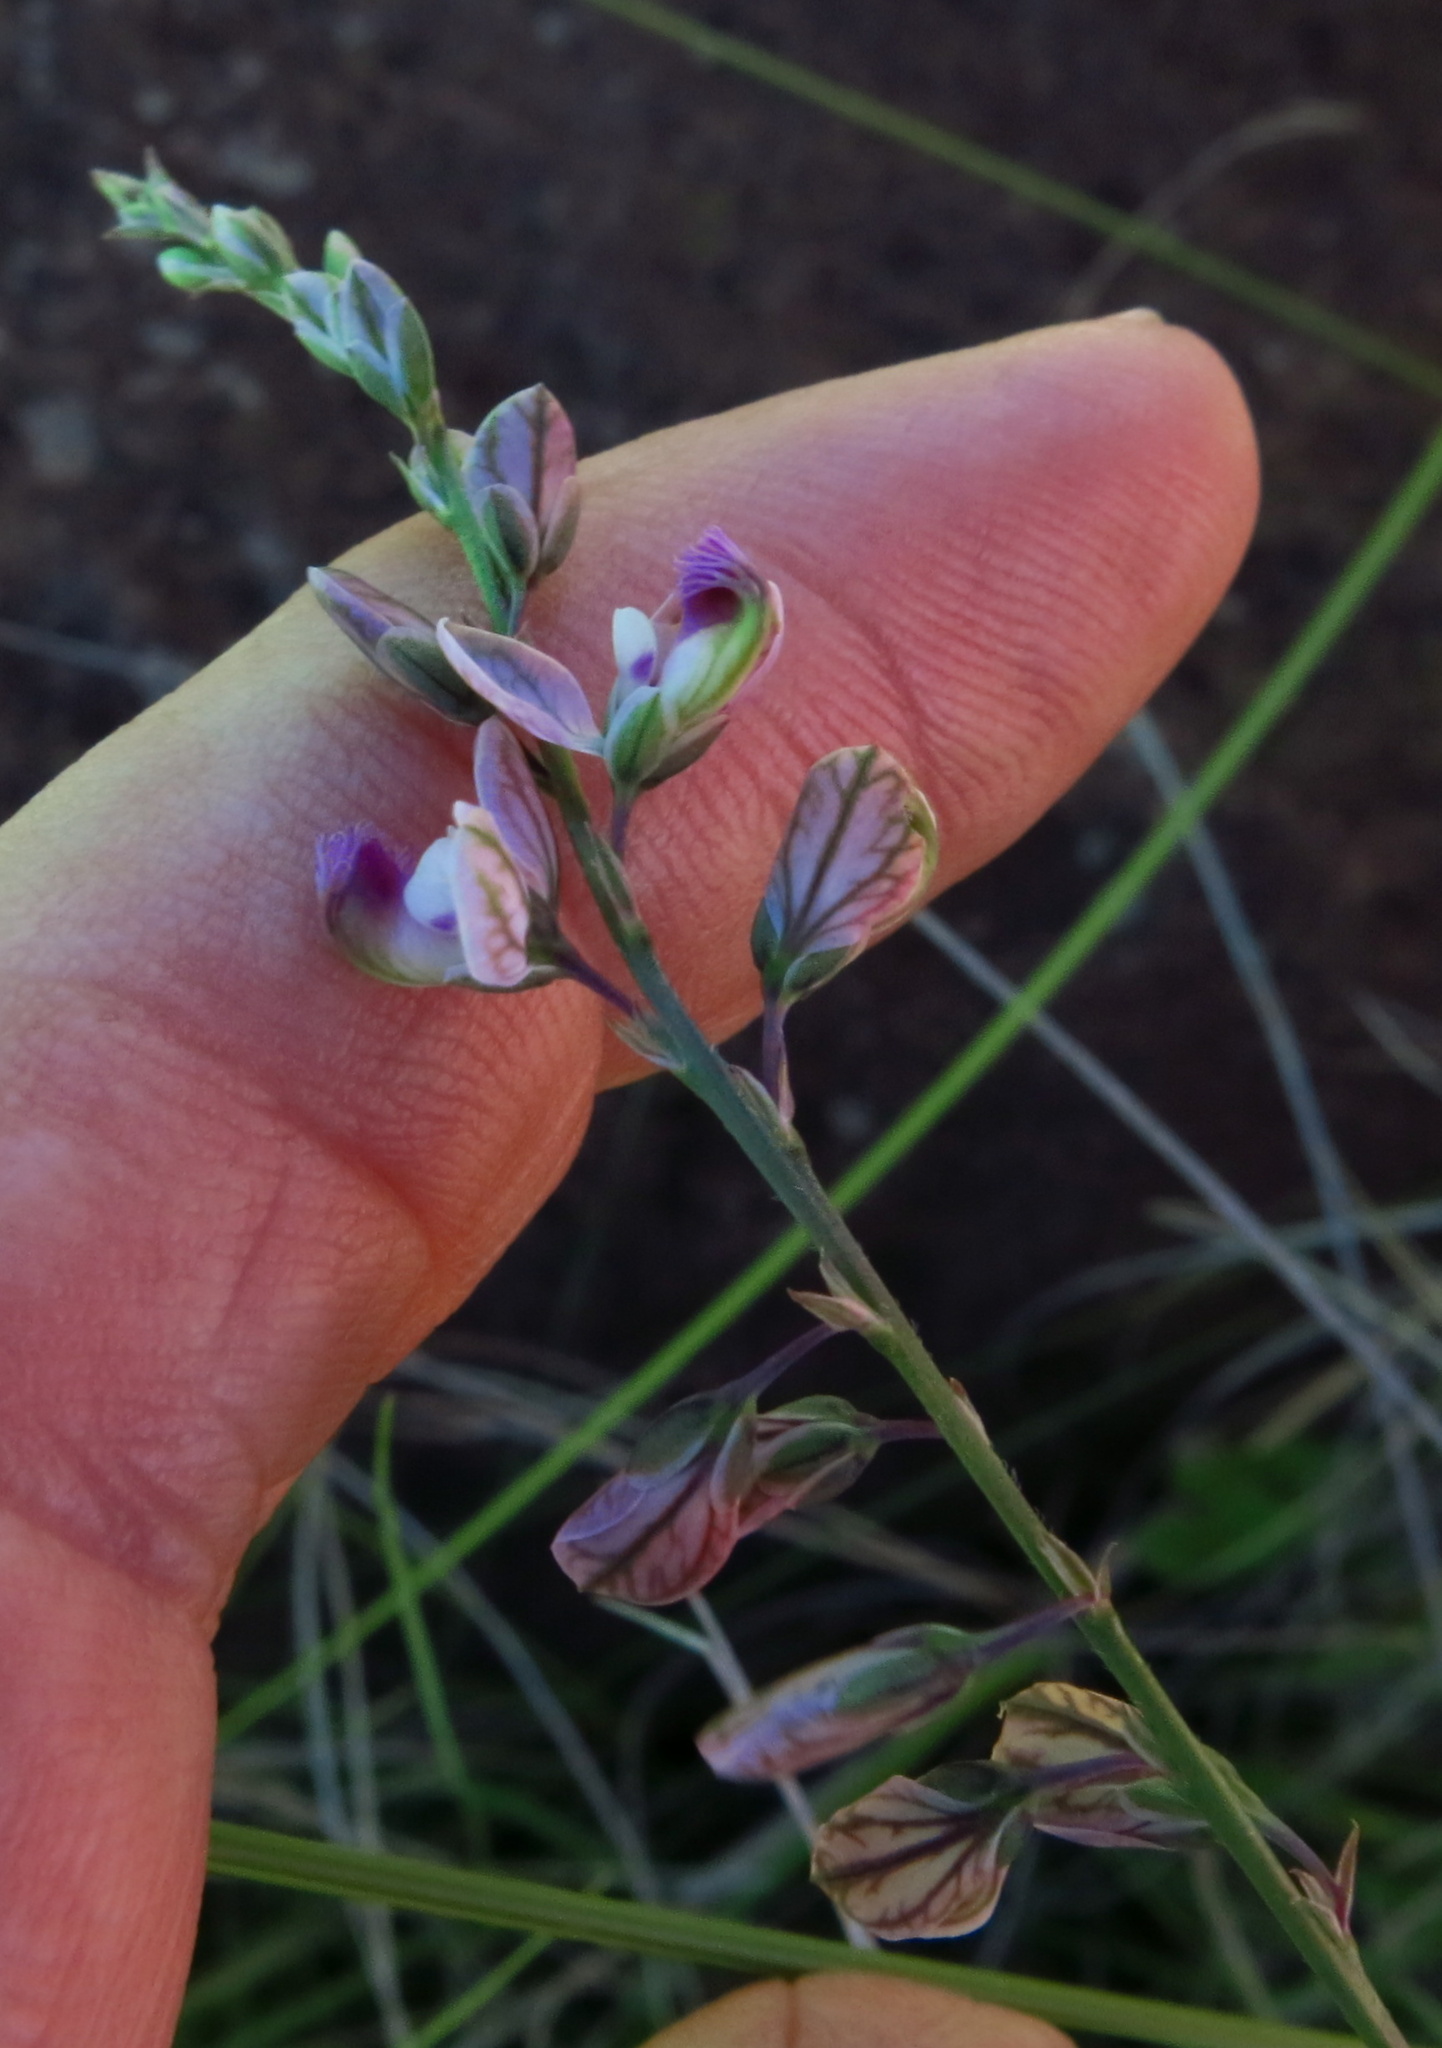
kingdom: Plantae
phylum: Tracheophyta
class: Magnoliopsida
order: Fabales
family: Polygalaceae
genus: Polygala
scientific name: Polygala hottentotta
